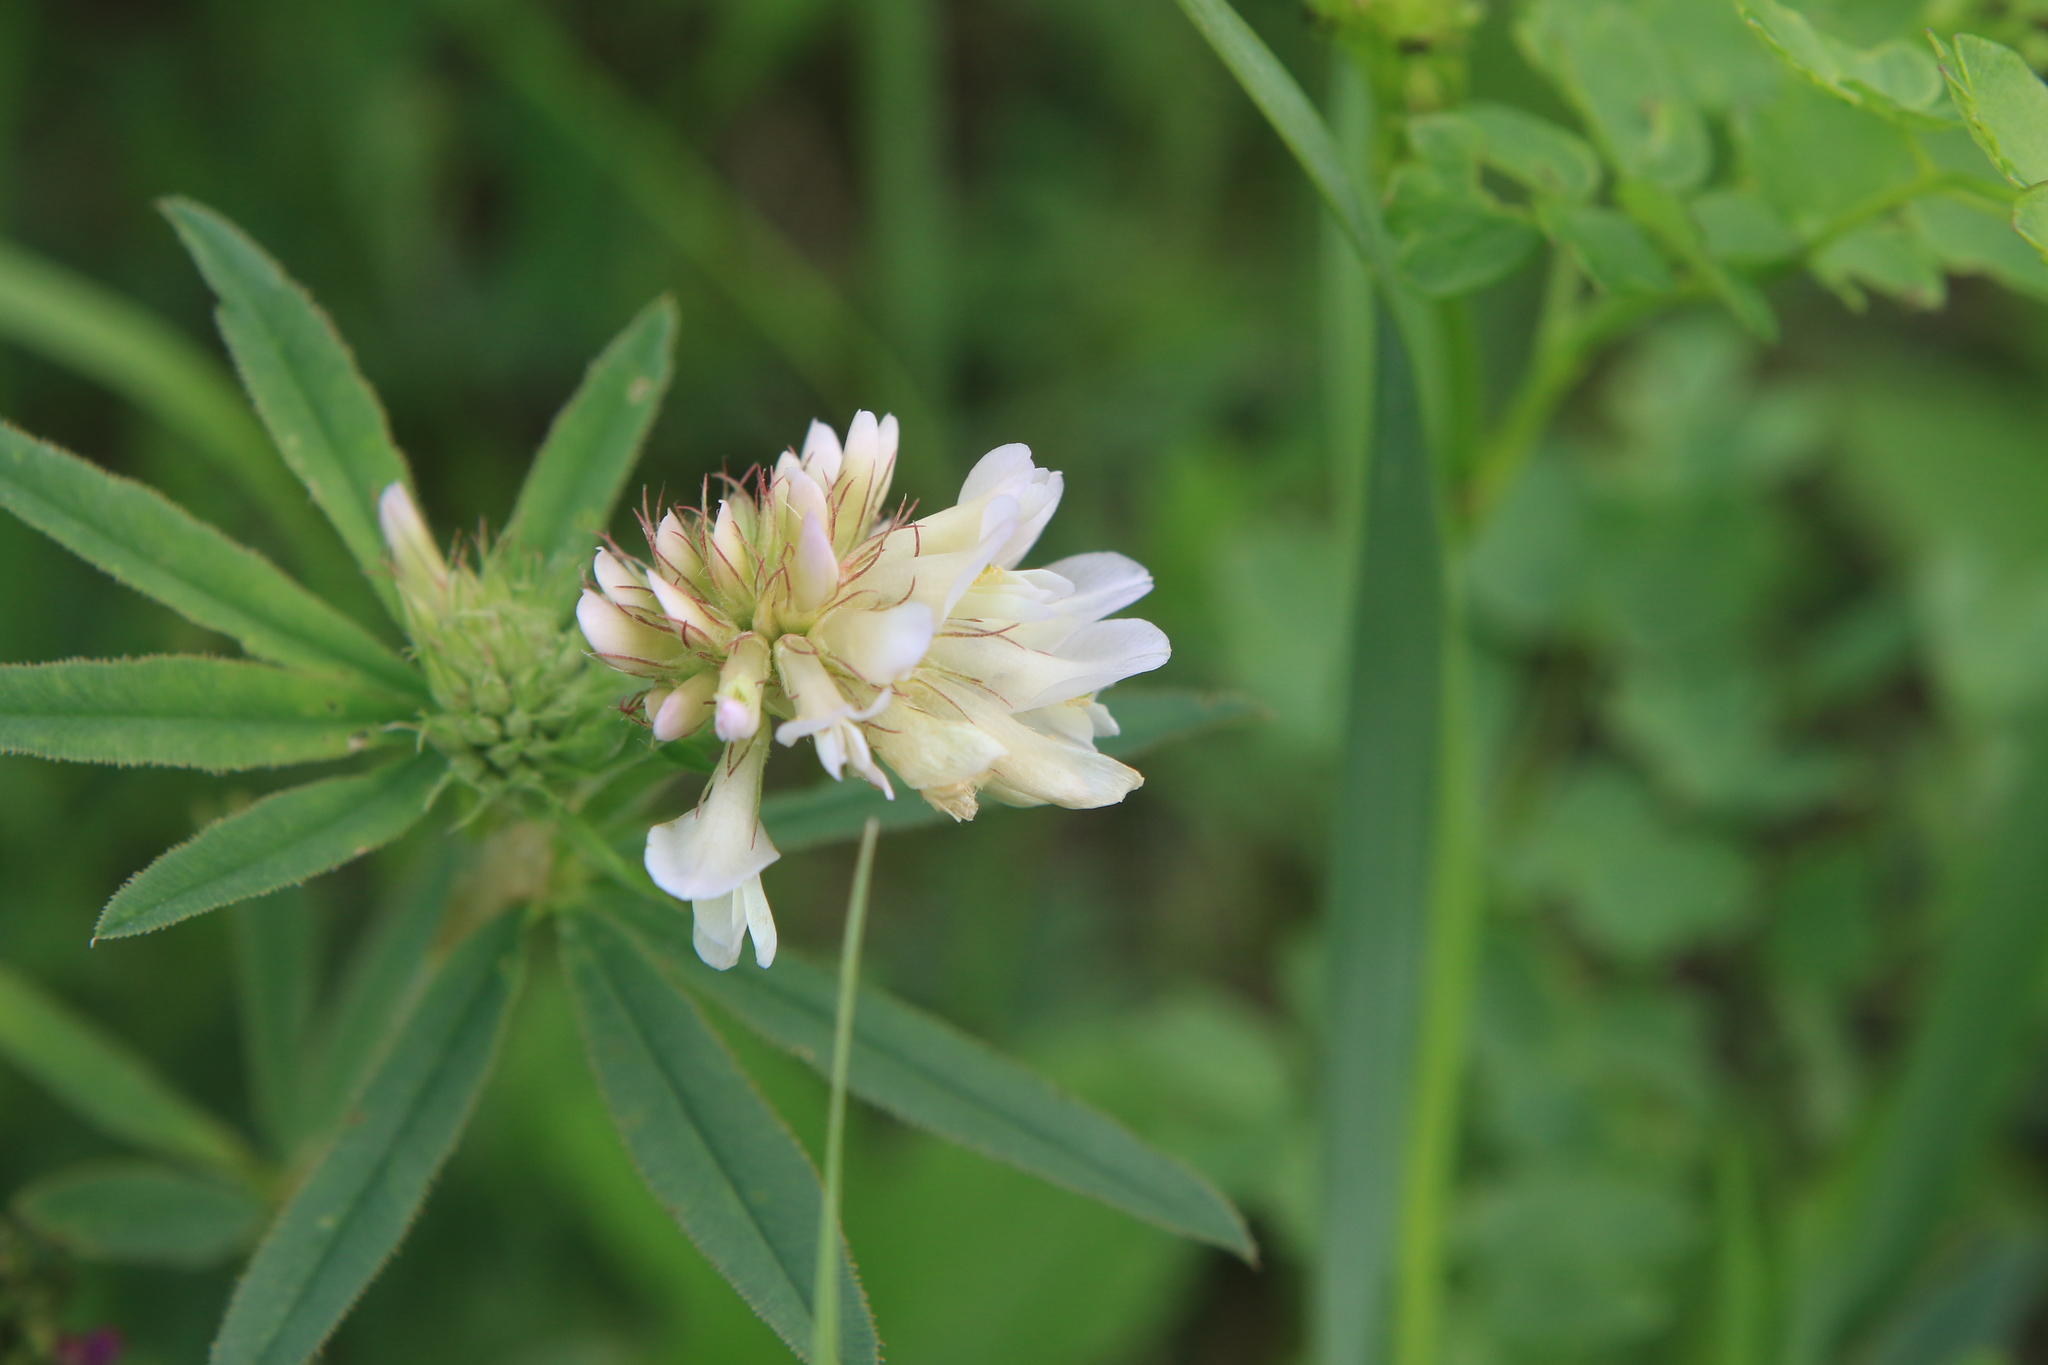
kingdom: Plantae
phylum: Tracheophyta
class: Magnoliopsida
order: Fabales
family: Fabaceae
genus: Trifolium
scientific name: Trifolium lupinaster
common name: Lupine clover
